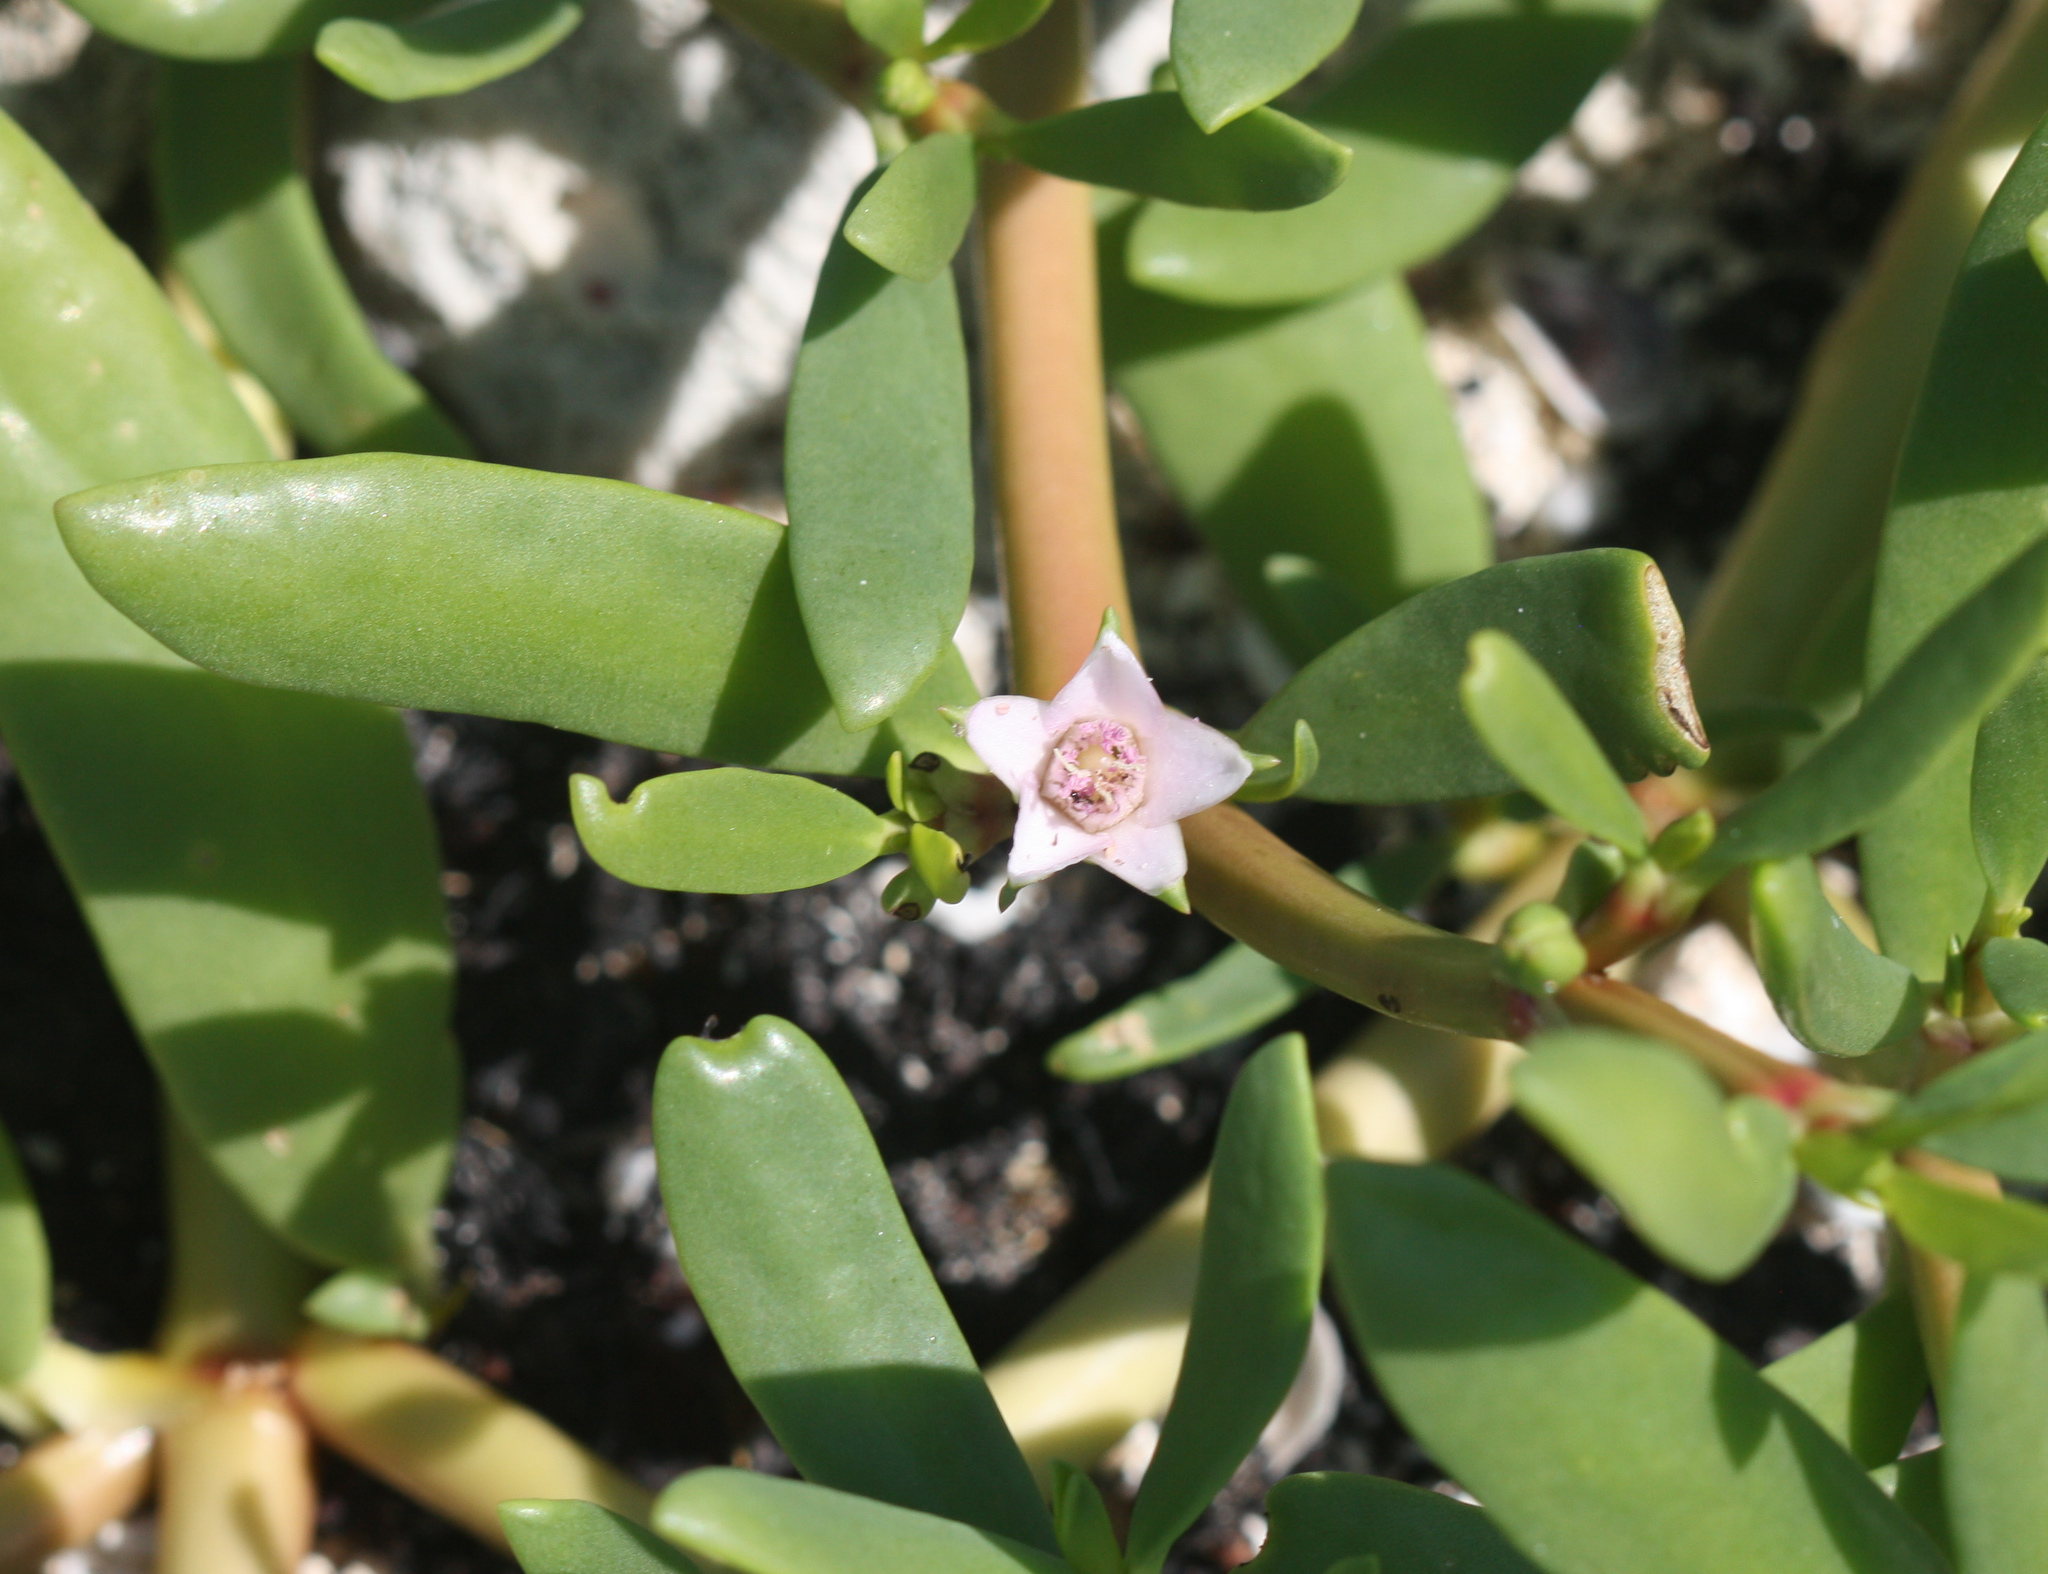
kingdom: Plantae
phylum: Tracheophyta
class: Magnoliopsida
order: Caryophyllales
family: Aizoaceae
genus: Sesuvium
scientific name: Sesuvium portulacastrum
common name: Sea-purslane
